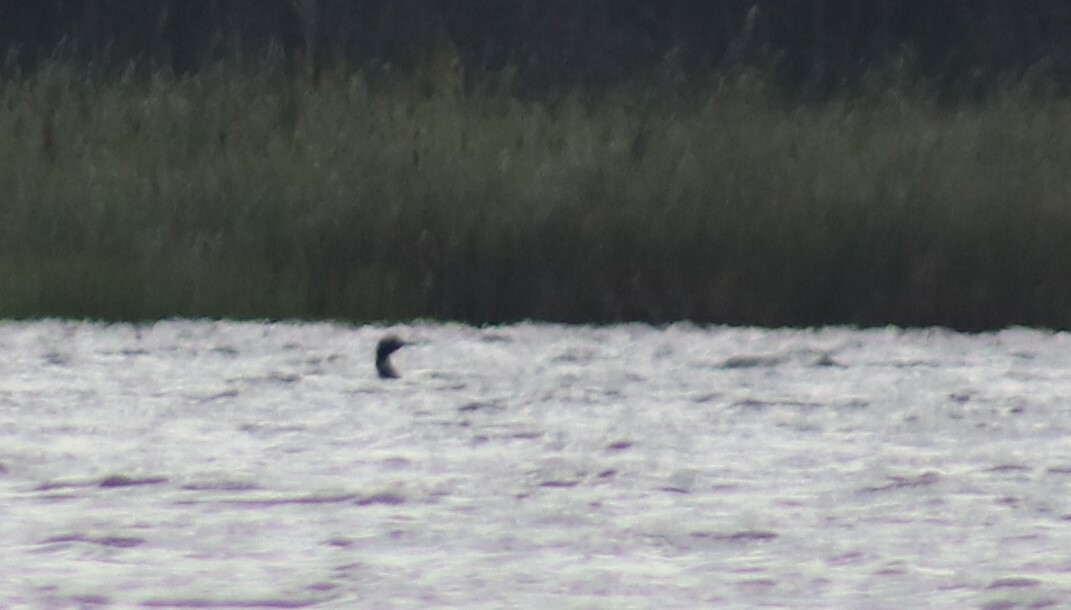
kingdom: Animalia
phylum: Chordata
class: Aves
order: Gaviiformes
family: Gaviidae
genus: Gavia
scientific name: Gavia immer
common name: Common loon
